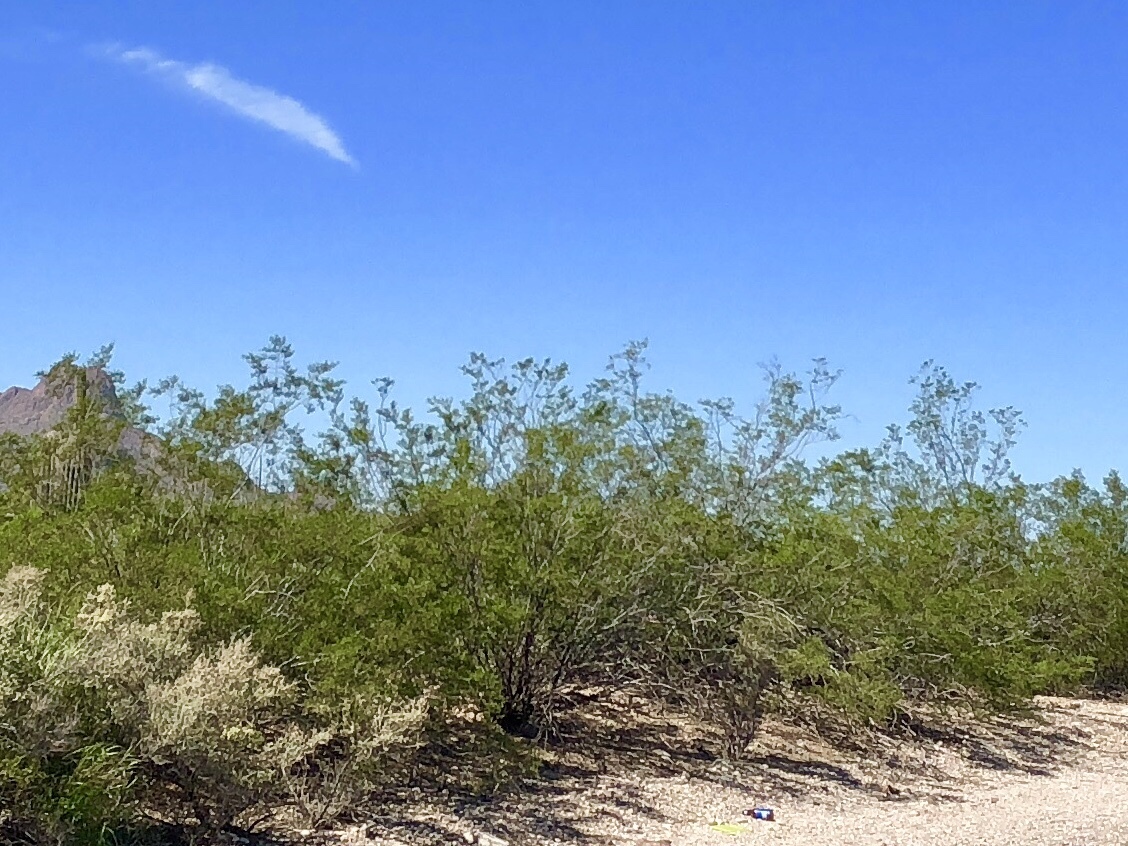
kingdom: Plantae
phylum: Tracheophyta
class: Magnoliopsida
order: Zygophyllales
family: Zygophyllaceae
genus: Larrea
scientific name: Larrea tridentata
